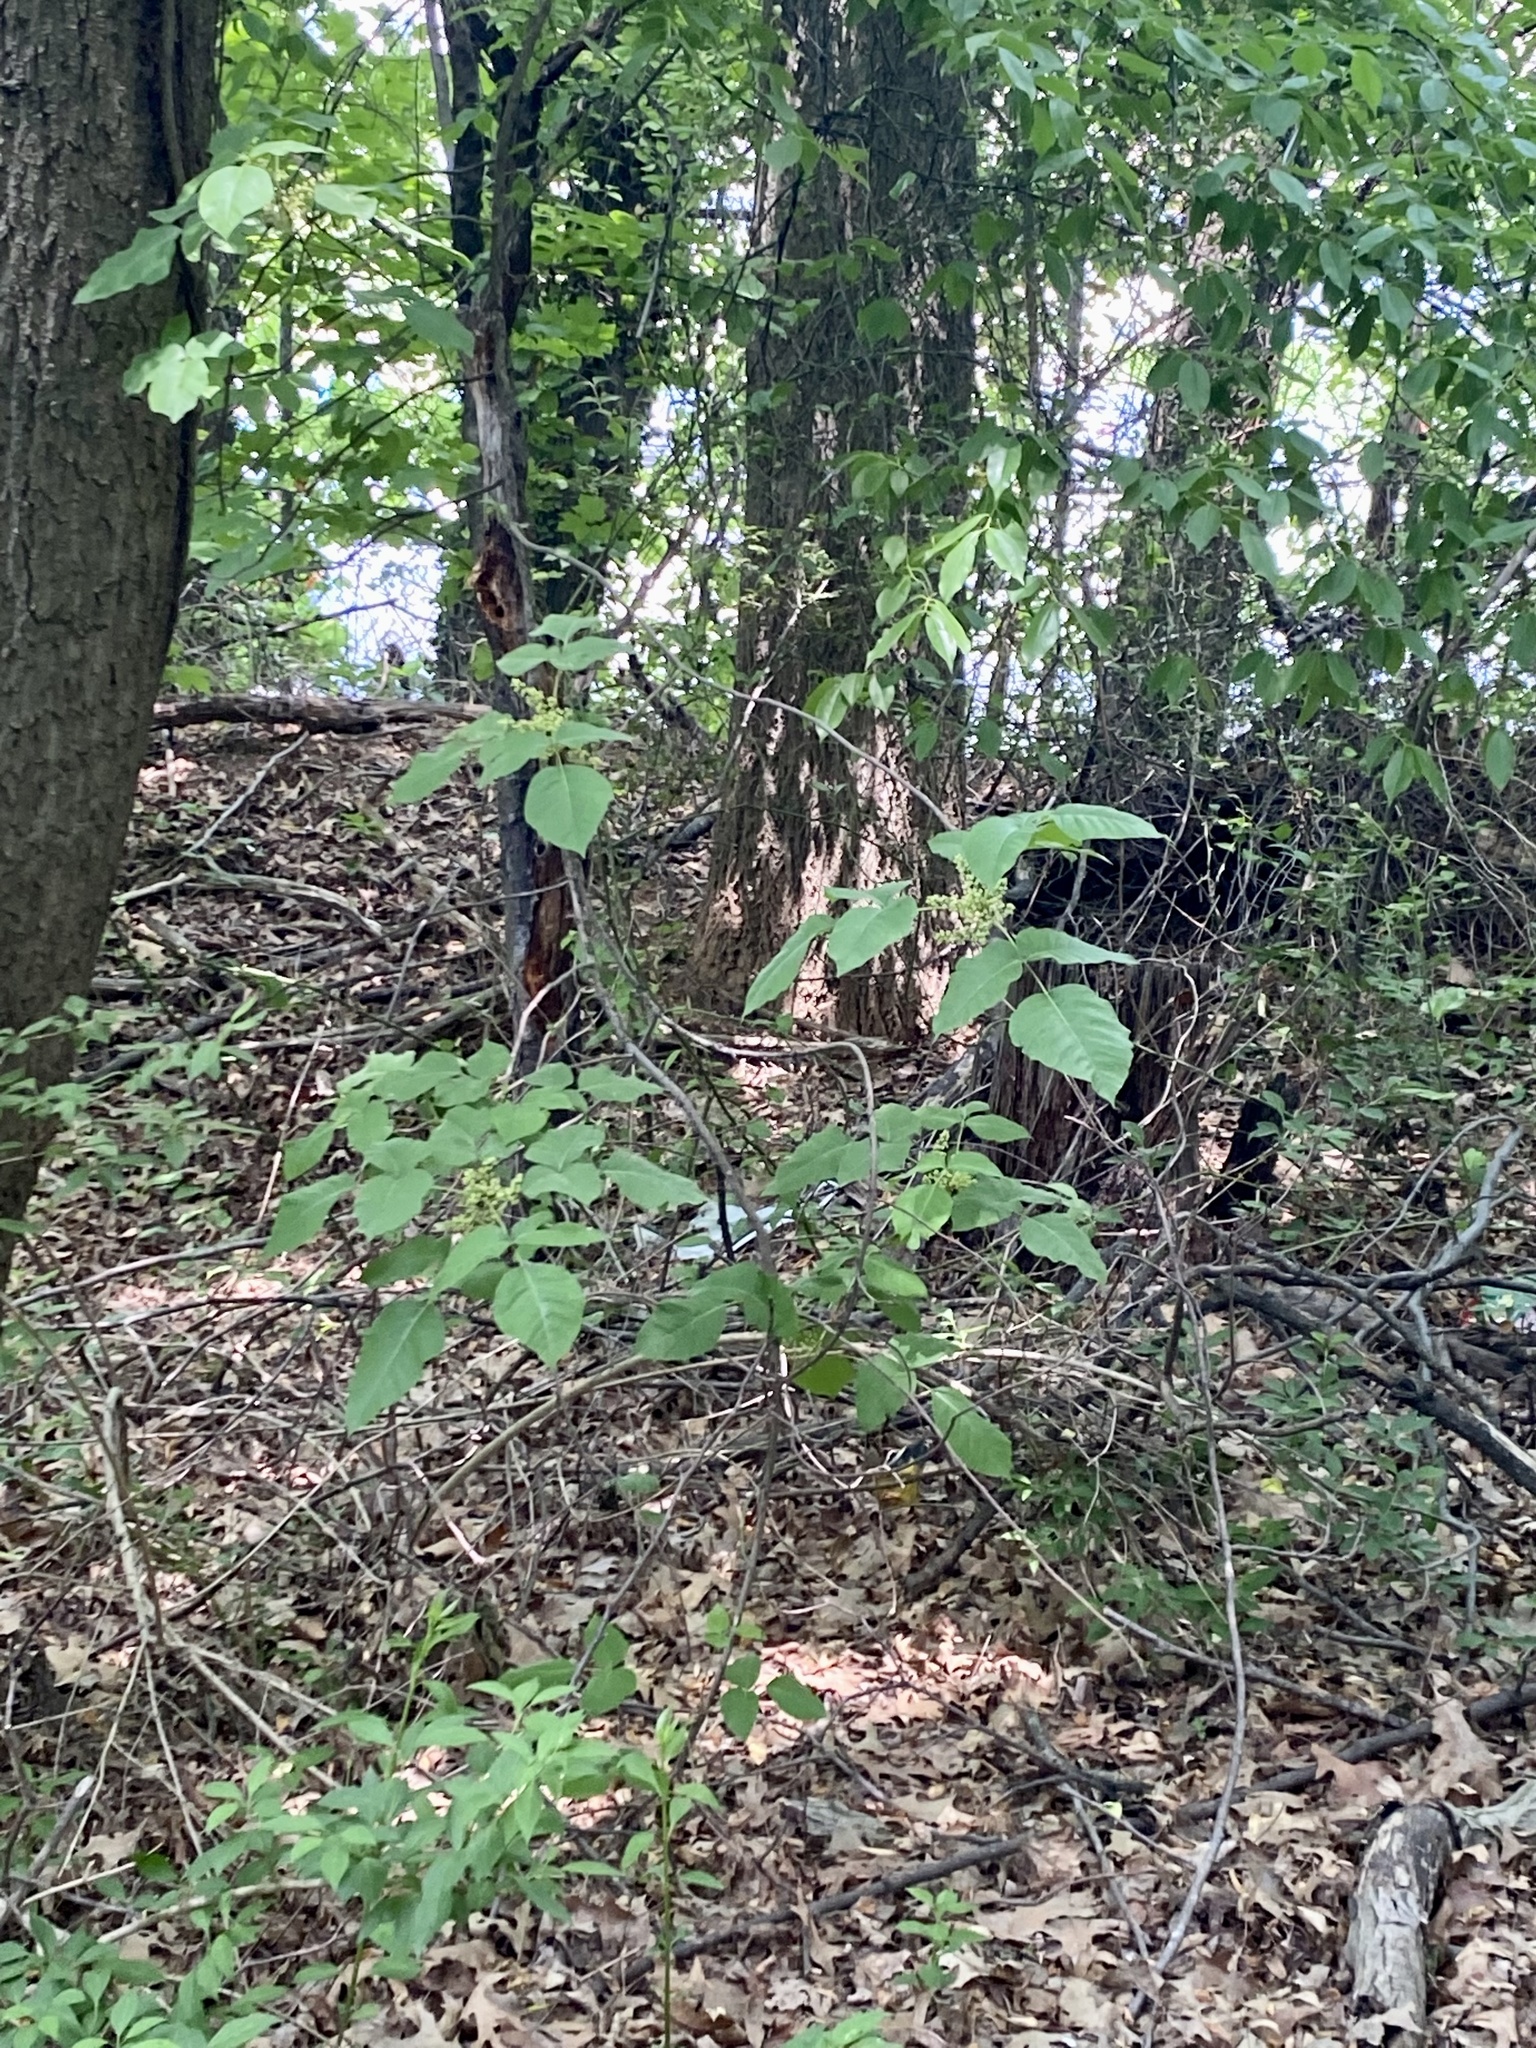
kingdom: Plantae
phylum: Tracheophyta
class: Magnoliopsida
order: Sapindales
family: Anacardiaceae
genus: Toxicodendron
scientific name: Toxicodendron radicans
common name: Poison ivy
